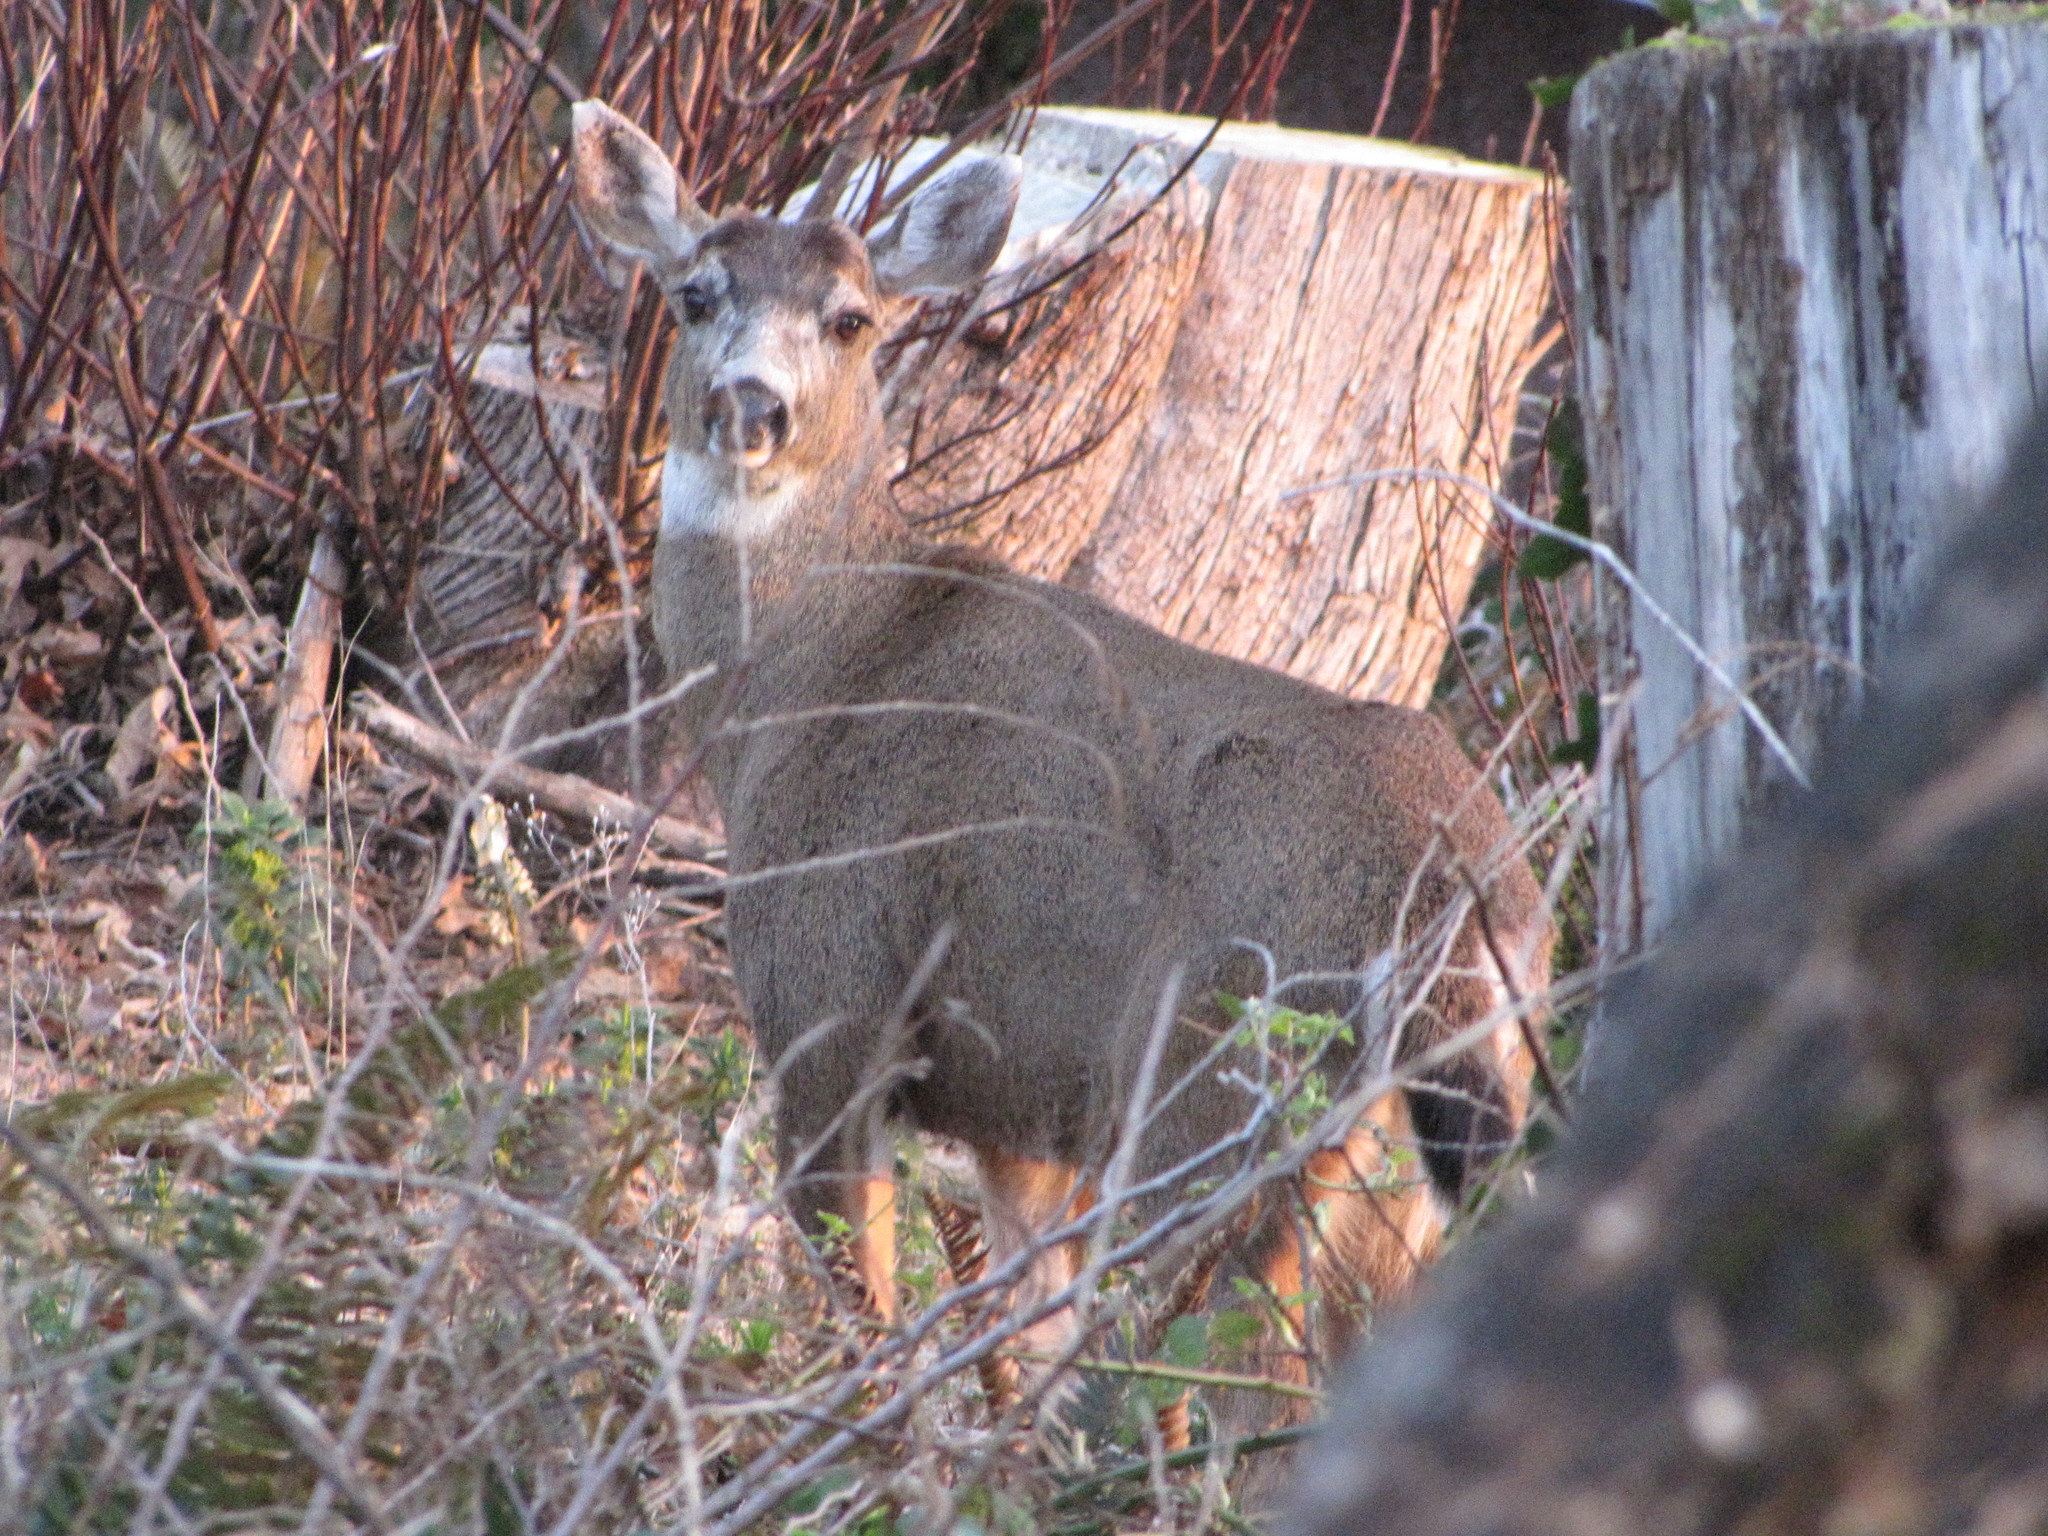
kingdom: Animalia
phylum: Chordata
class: Mammalia
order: Artiodactyla
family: Cervidae
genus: Odocoileus
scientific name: Odocoileus hemionus
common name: Mule deer
